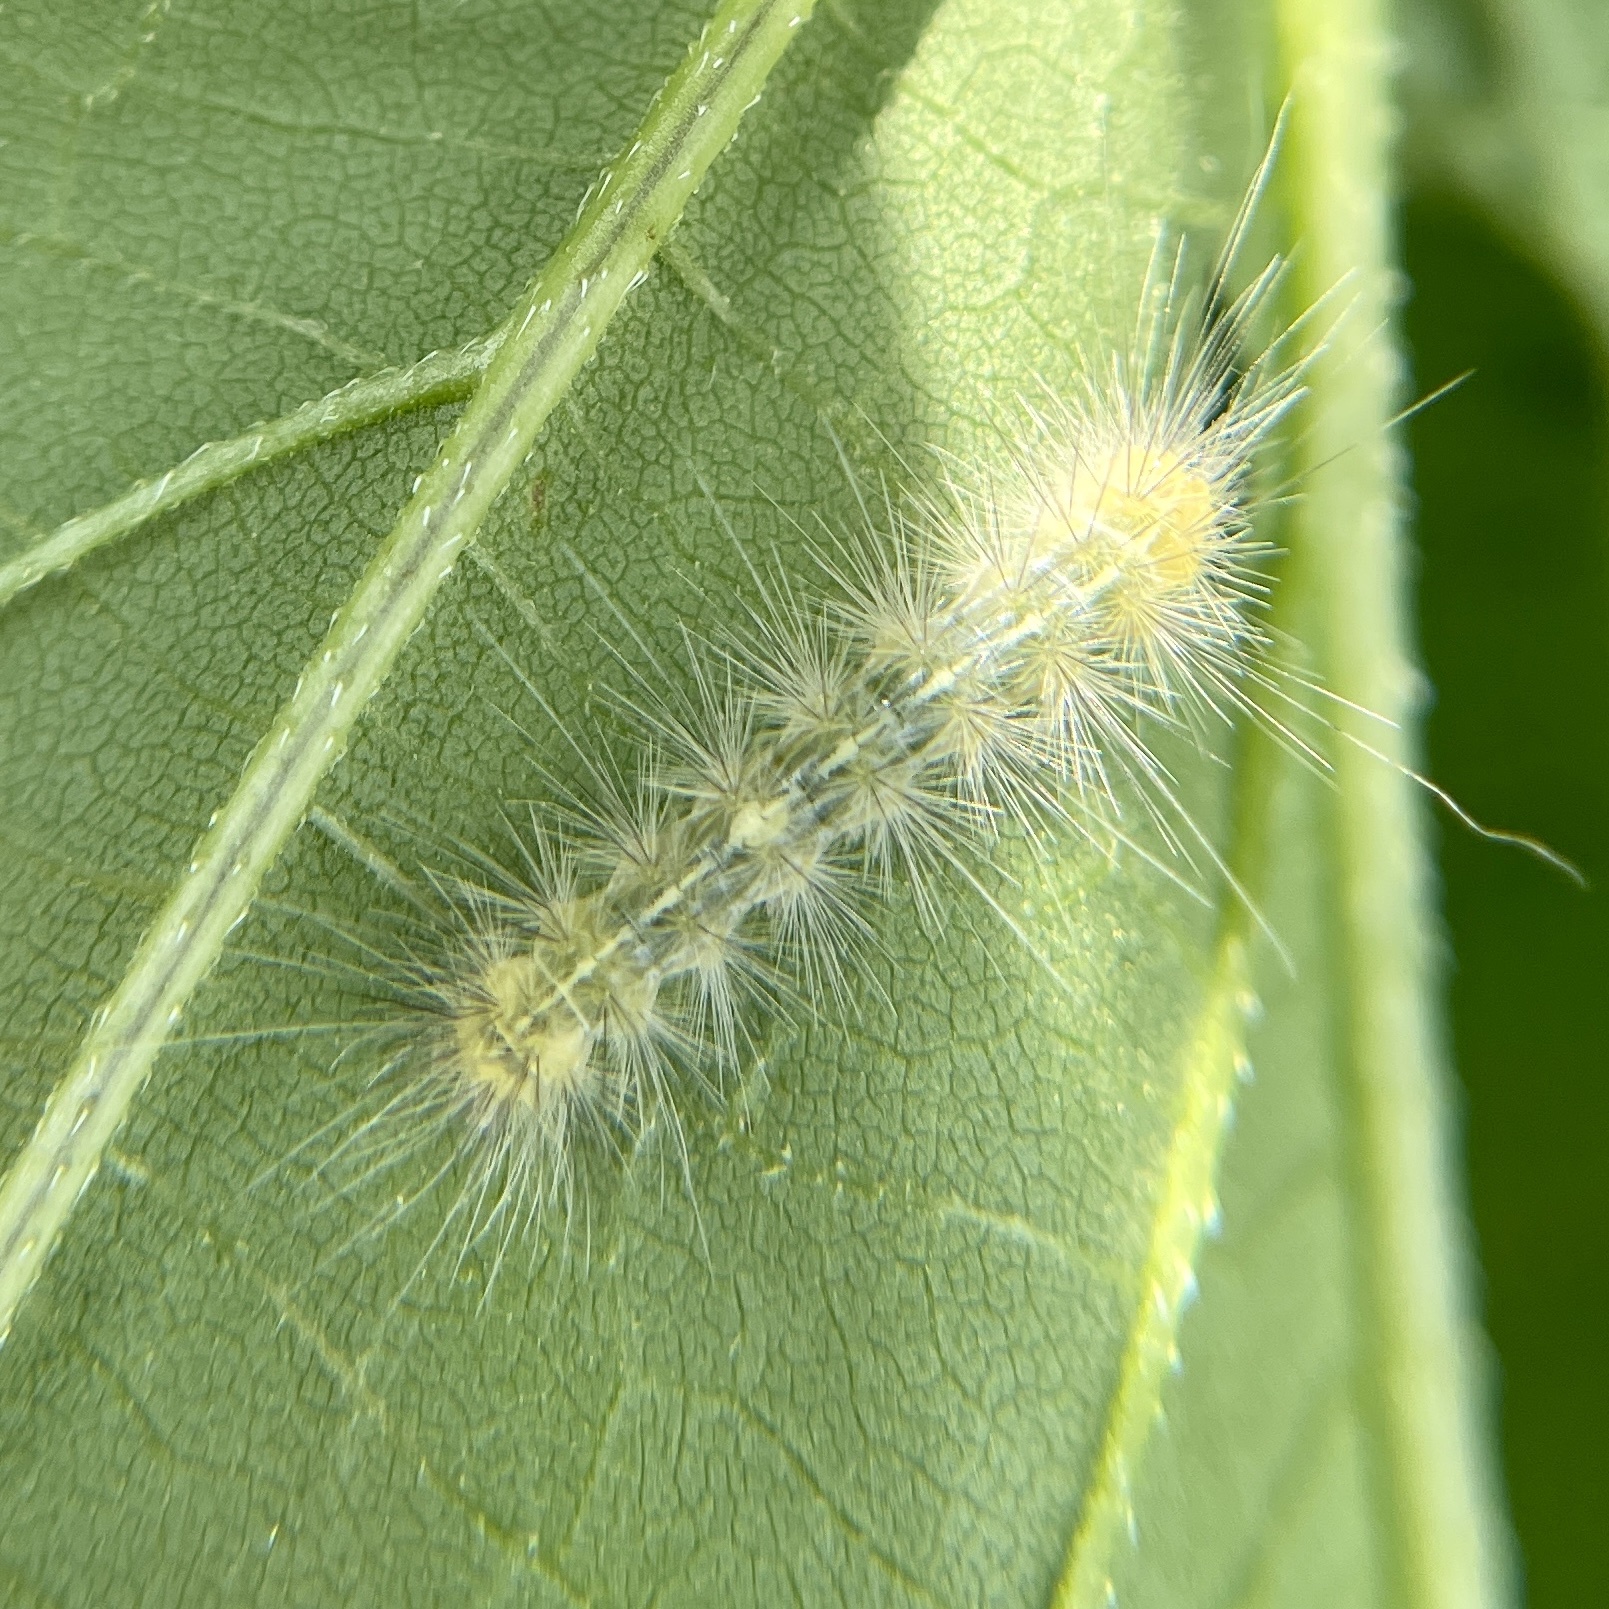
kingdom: Animalia
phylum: Arthropoda
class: Insecta
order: Lepidoptera
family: Erebidae
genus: Spilosoma
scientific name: Spilosoma virginica
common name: Virginia tiger moth
